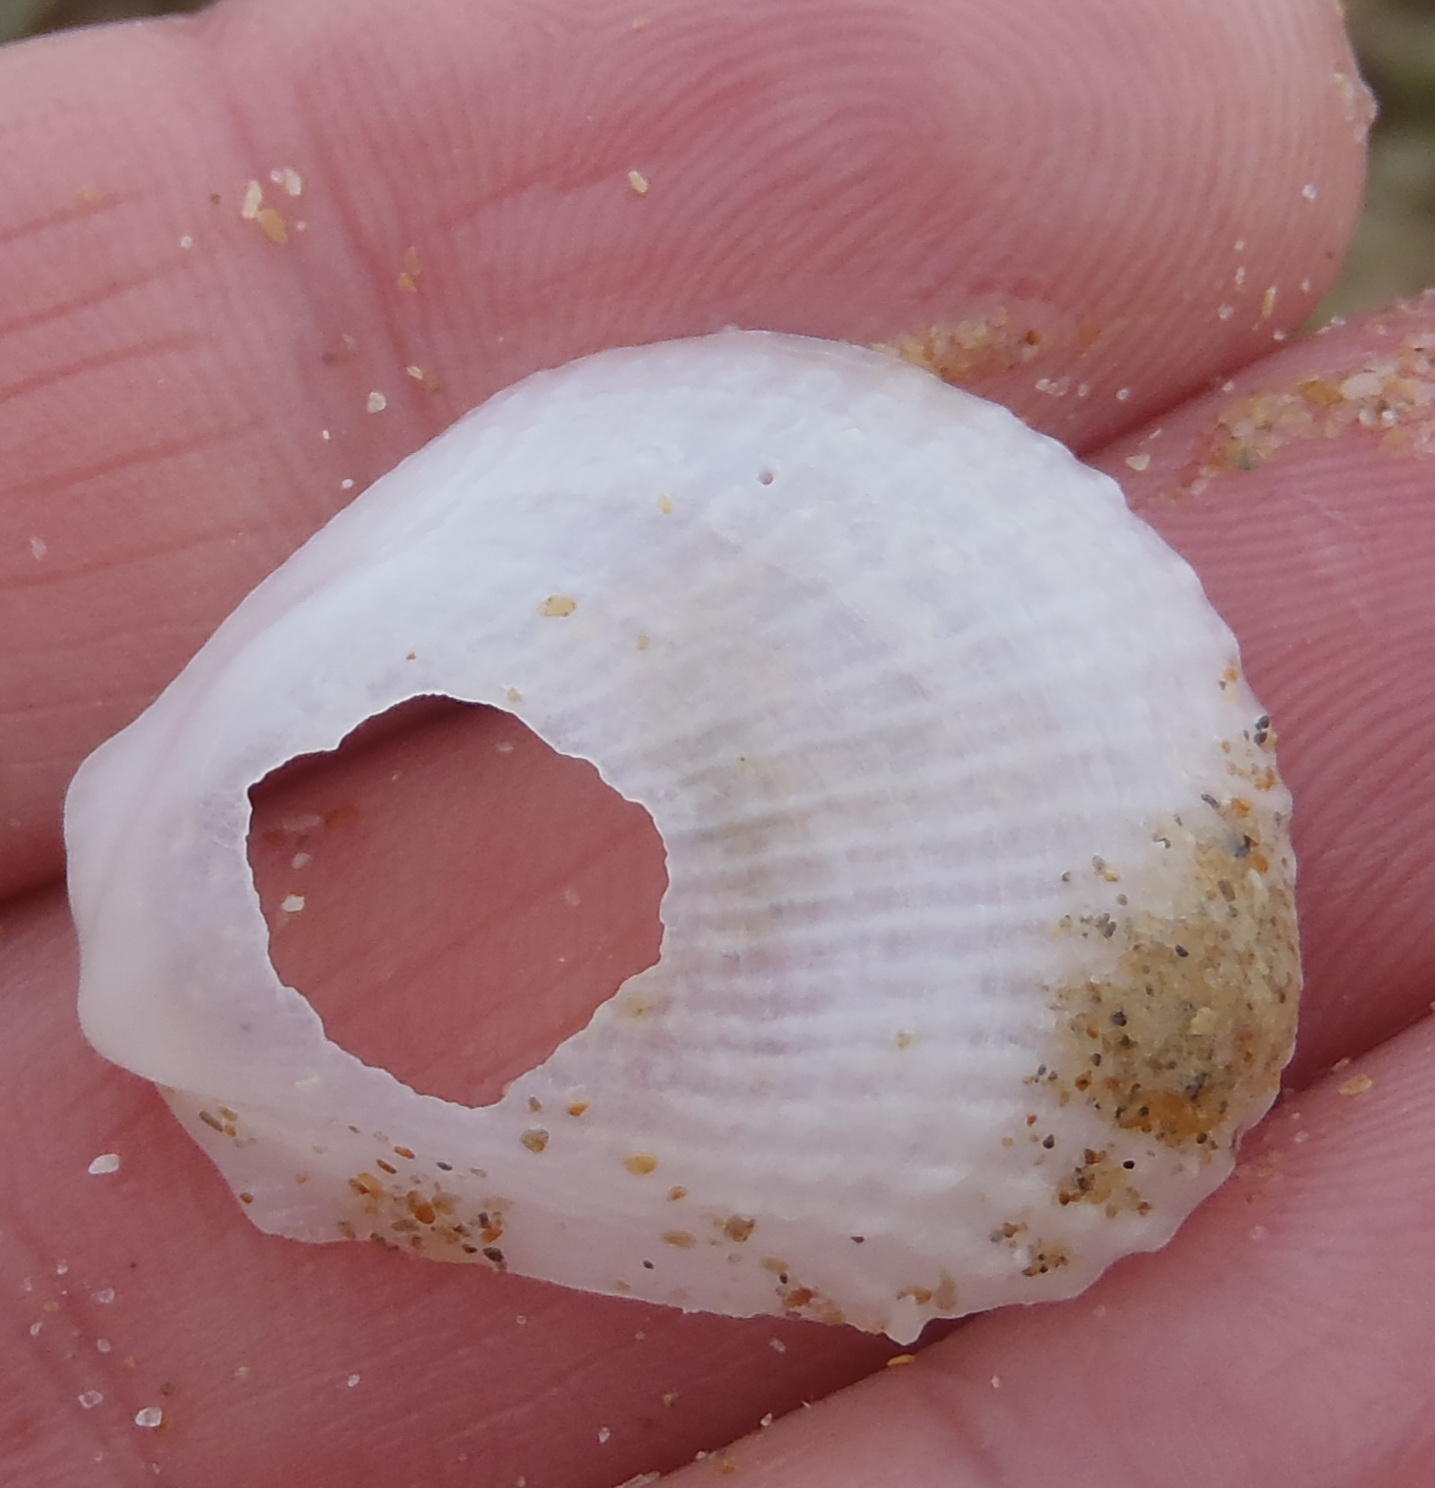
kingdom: Animalia
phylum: Mollusca
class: Bivalvia
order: Limida
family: Limidae
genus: Limaria
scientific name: Limaria tuberculata
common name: File shell
